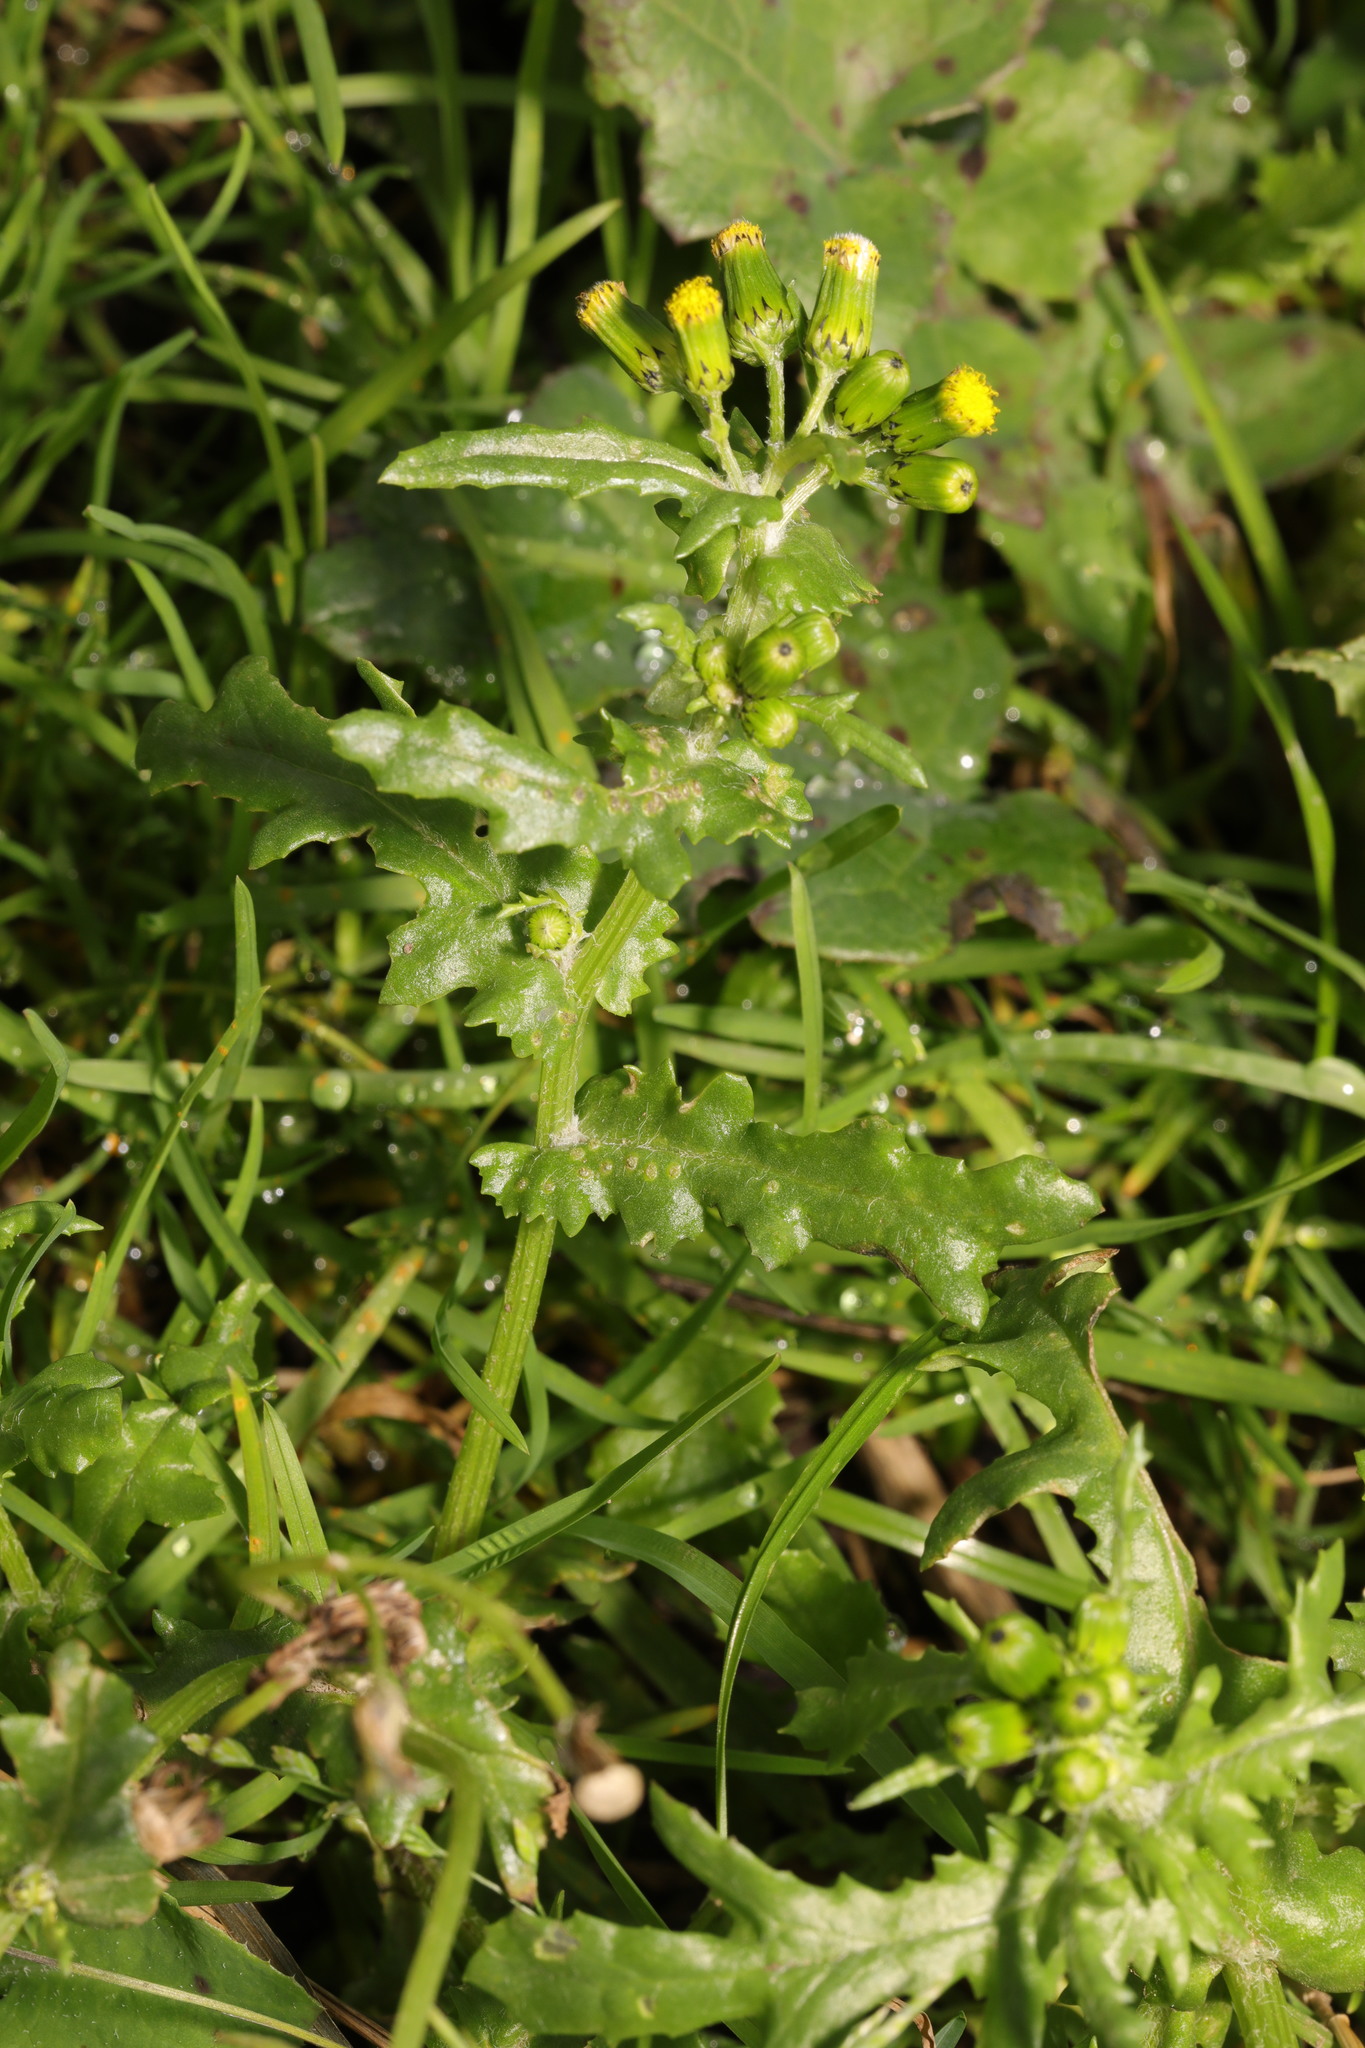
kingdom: Plantae
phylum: Tracheophyta
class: Magnoliopsida
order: Asterales
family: Asteraceae
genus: Senecio
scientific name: Senecio vulgaris
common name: Old-man-in-the-spring
